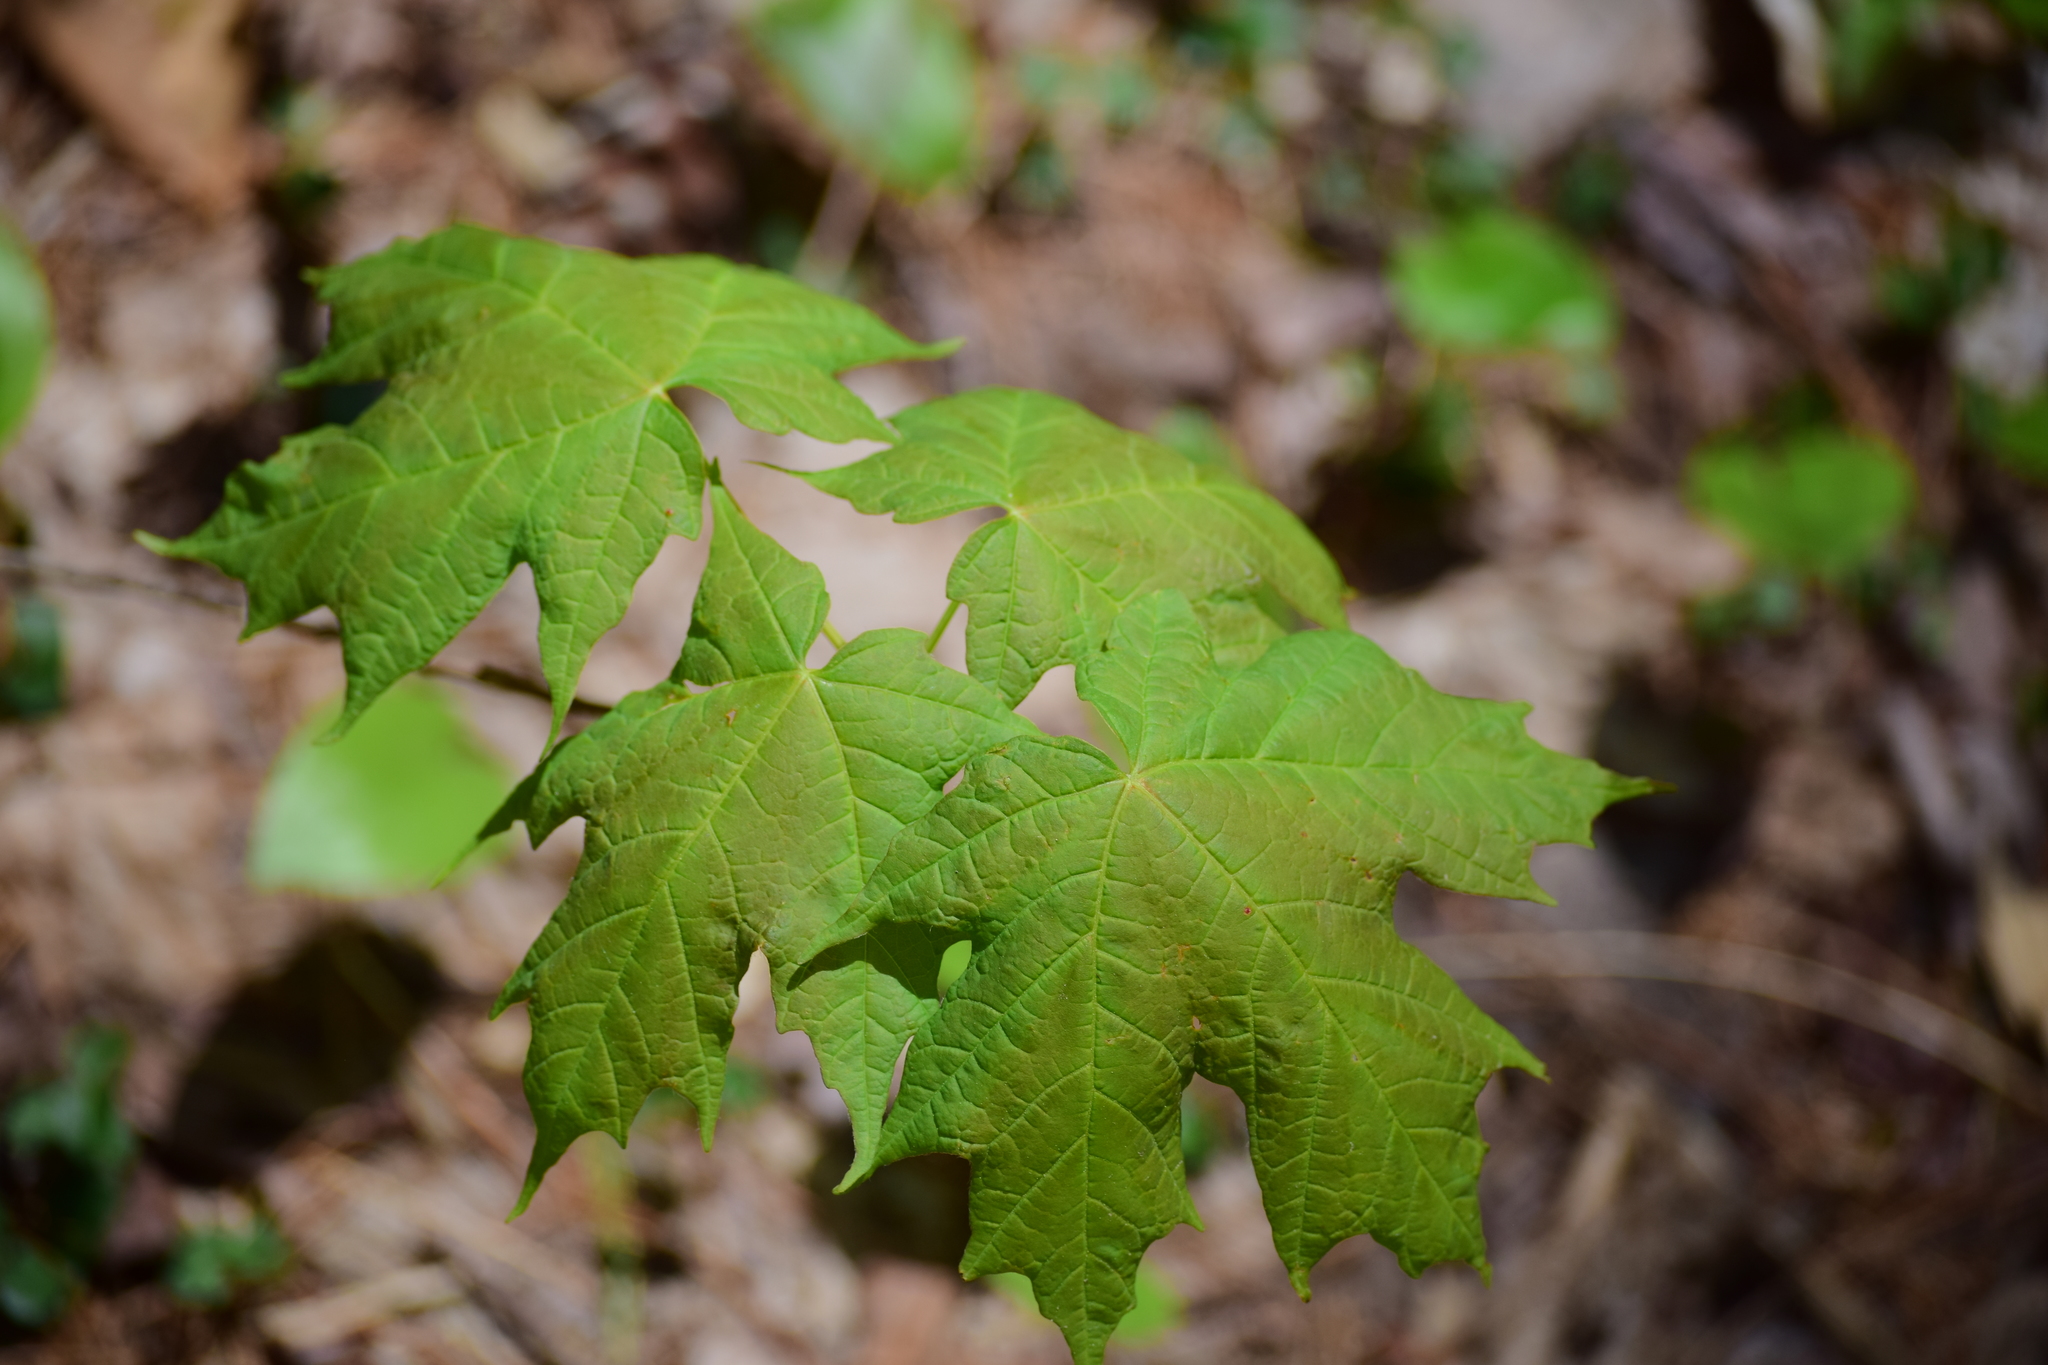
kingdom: Plantae
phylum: Tracheophyta
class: Magnoliopsida
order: Sapindales
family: Sapindaceae
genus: Acer
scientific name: Acer saccharum
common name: Sugar maple
